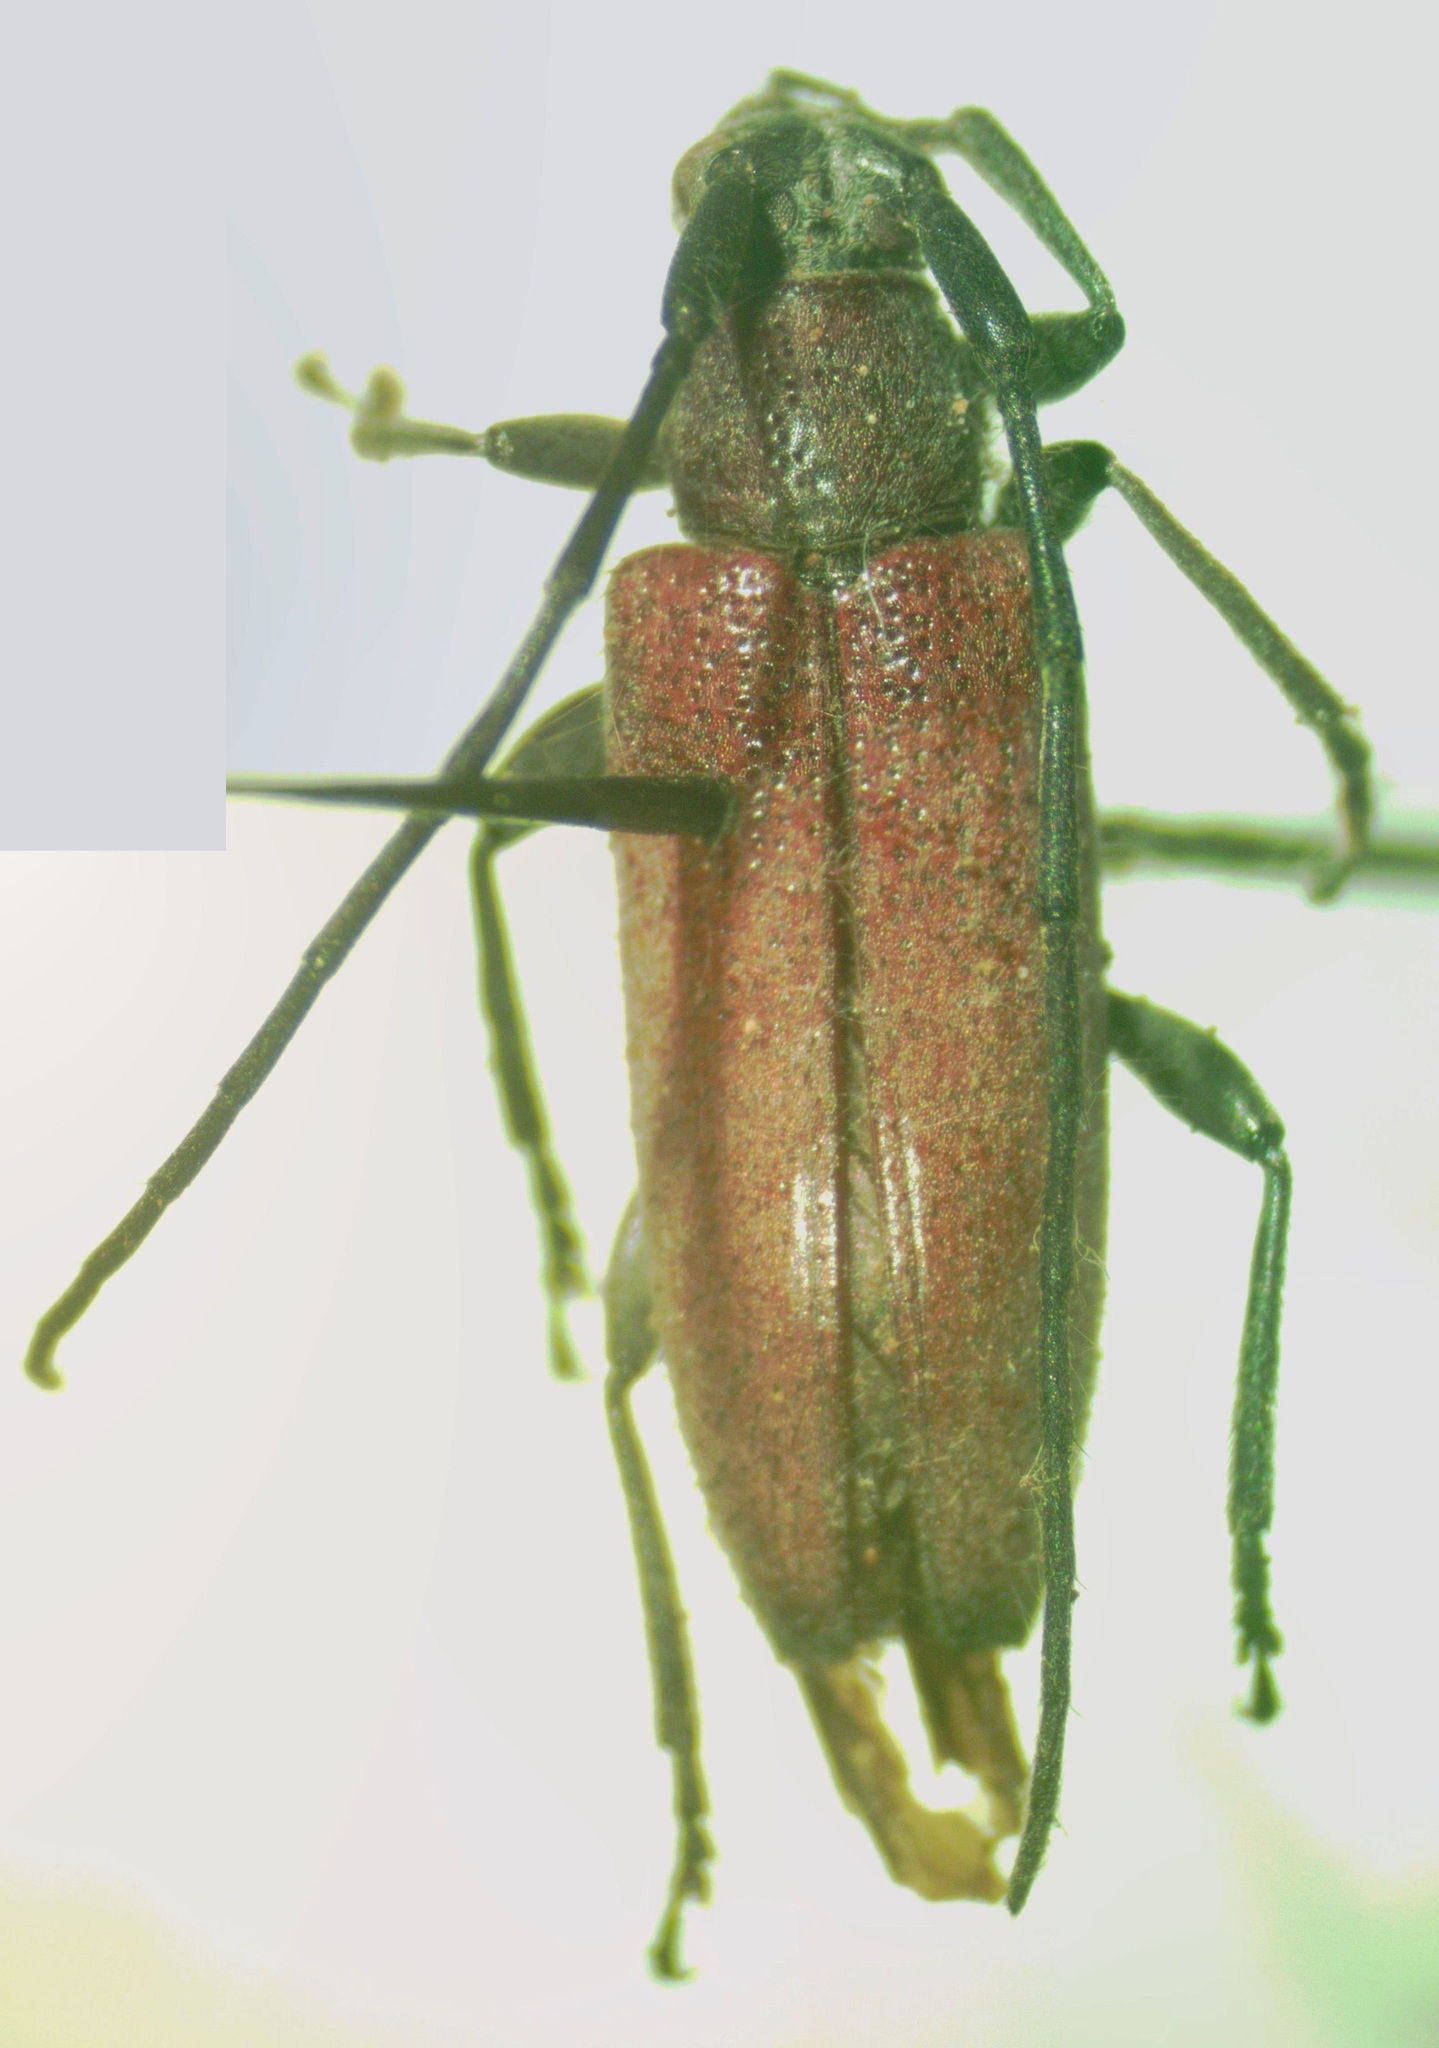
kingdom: Animalia
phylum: Arthropoda
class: Insecta
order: Coleoptera
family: Cerambycidae
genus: Cymatonycha
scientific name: Cymatonycha castanea
